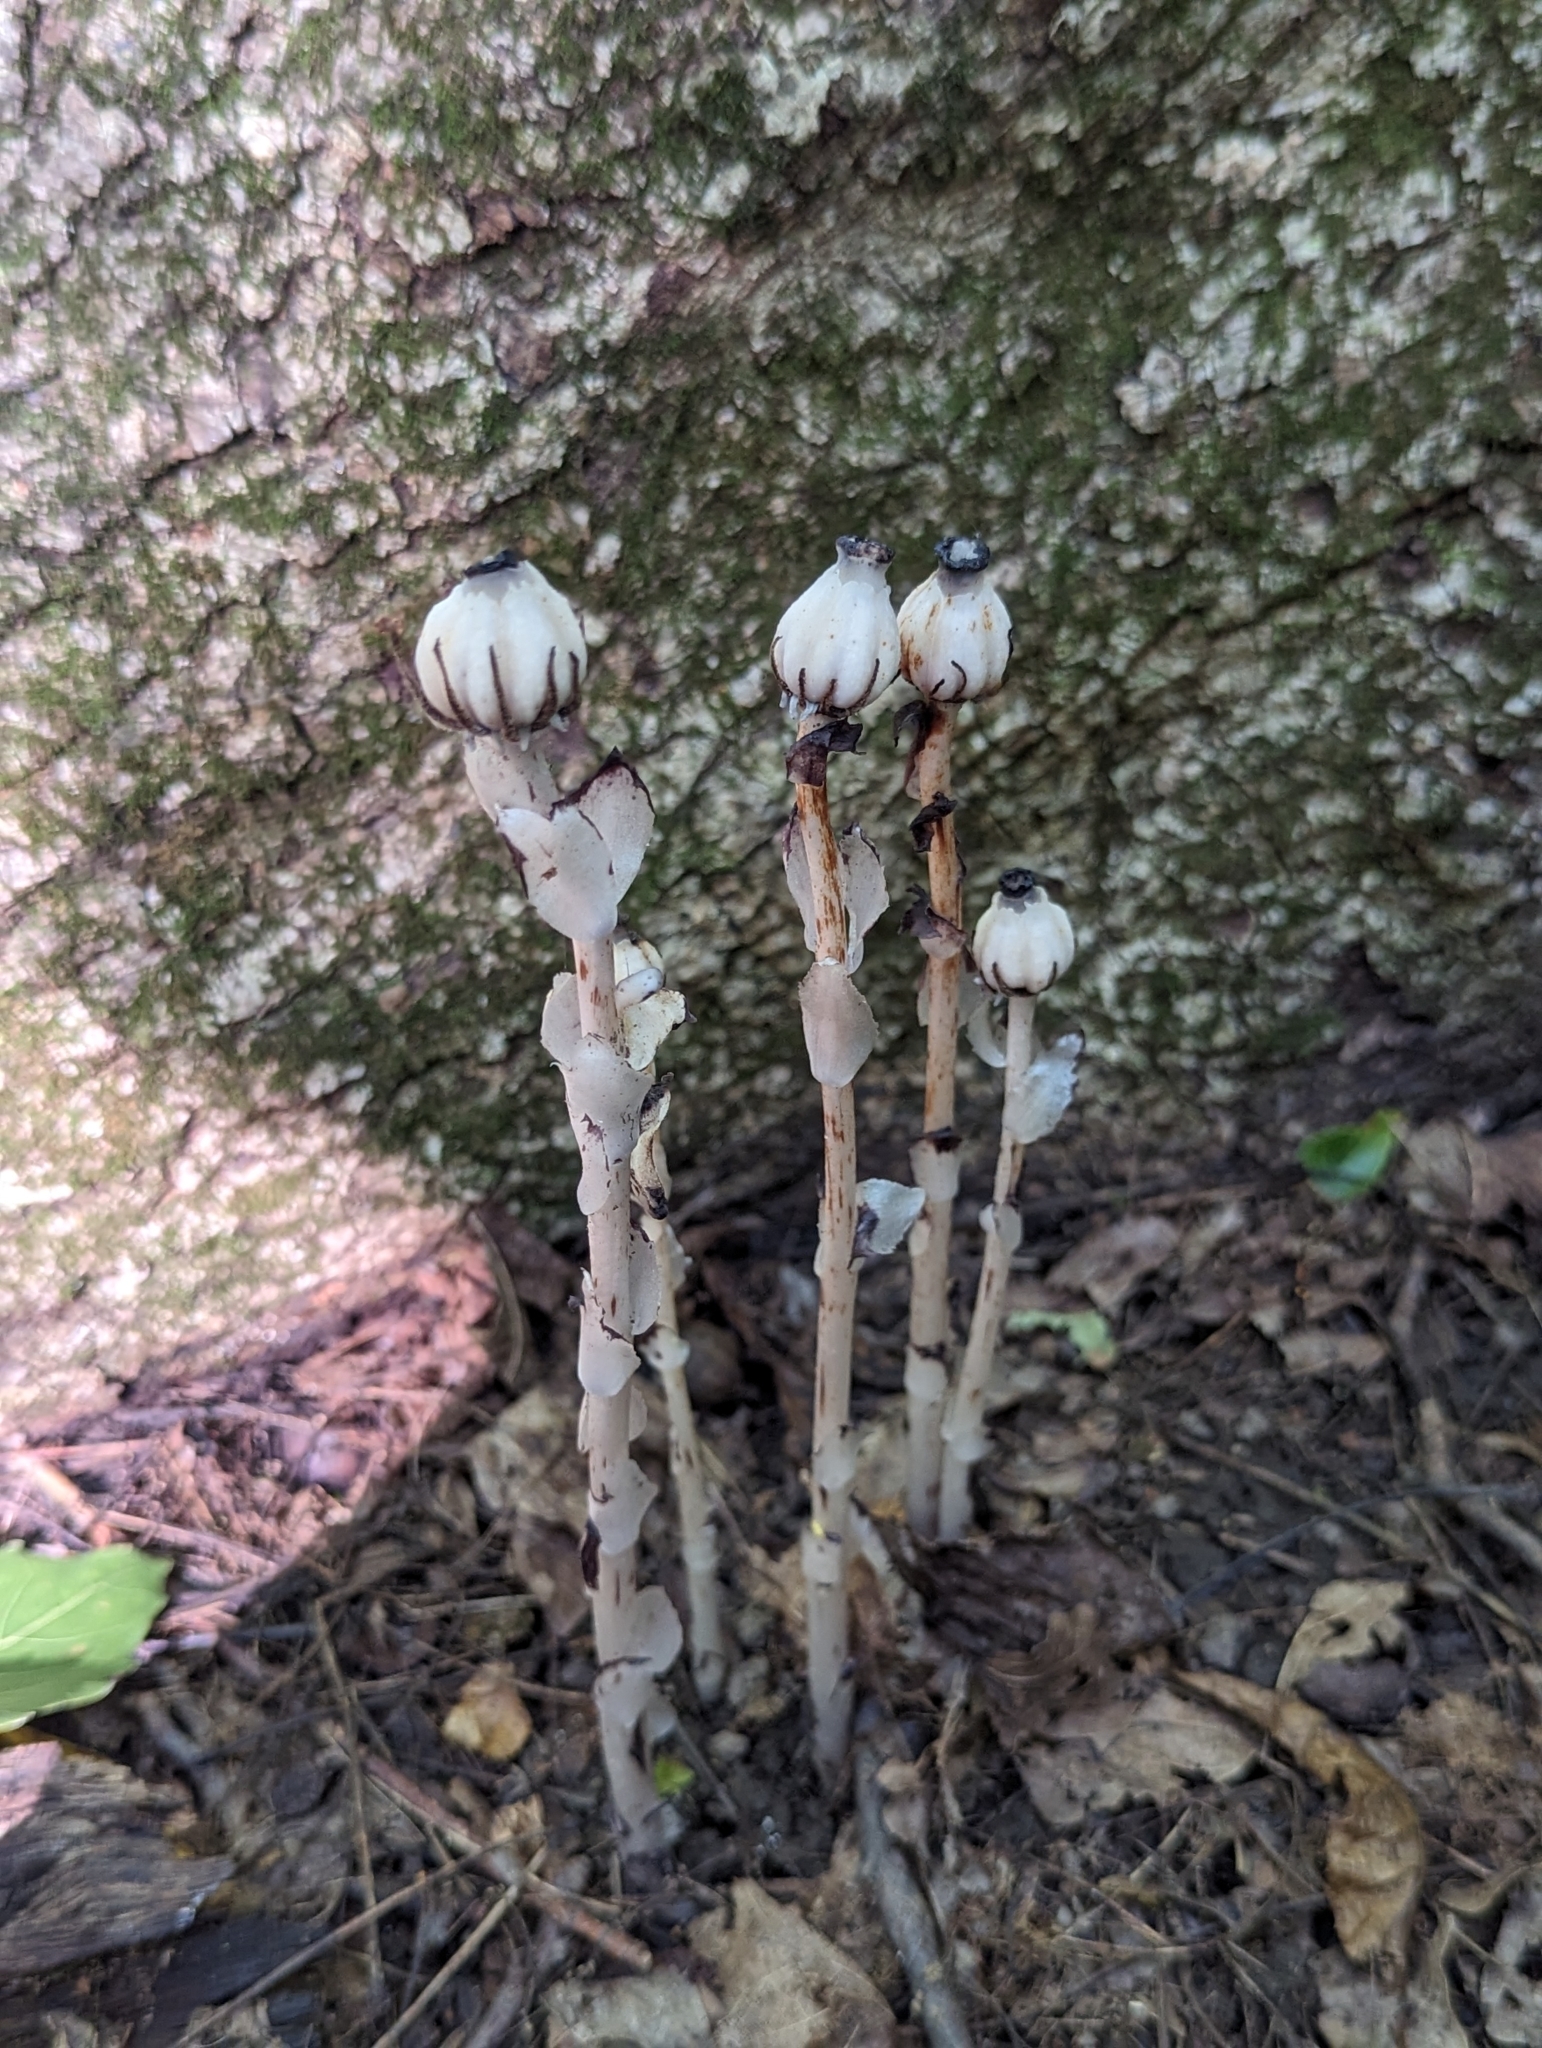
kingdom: Plantae
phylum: Tracheophyta
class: Magnoliopsida
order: Ericales
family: Ericaceae
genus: Monotropa
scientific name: Monotropa uniflora
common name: Convulsion root
